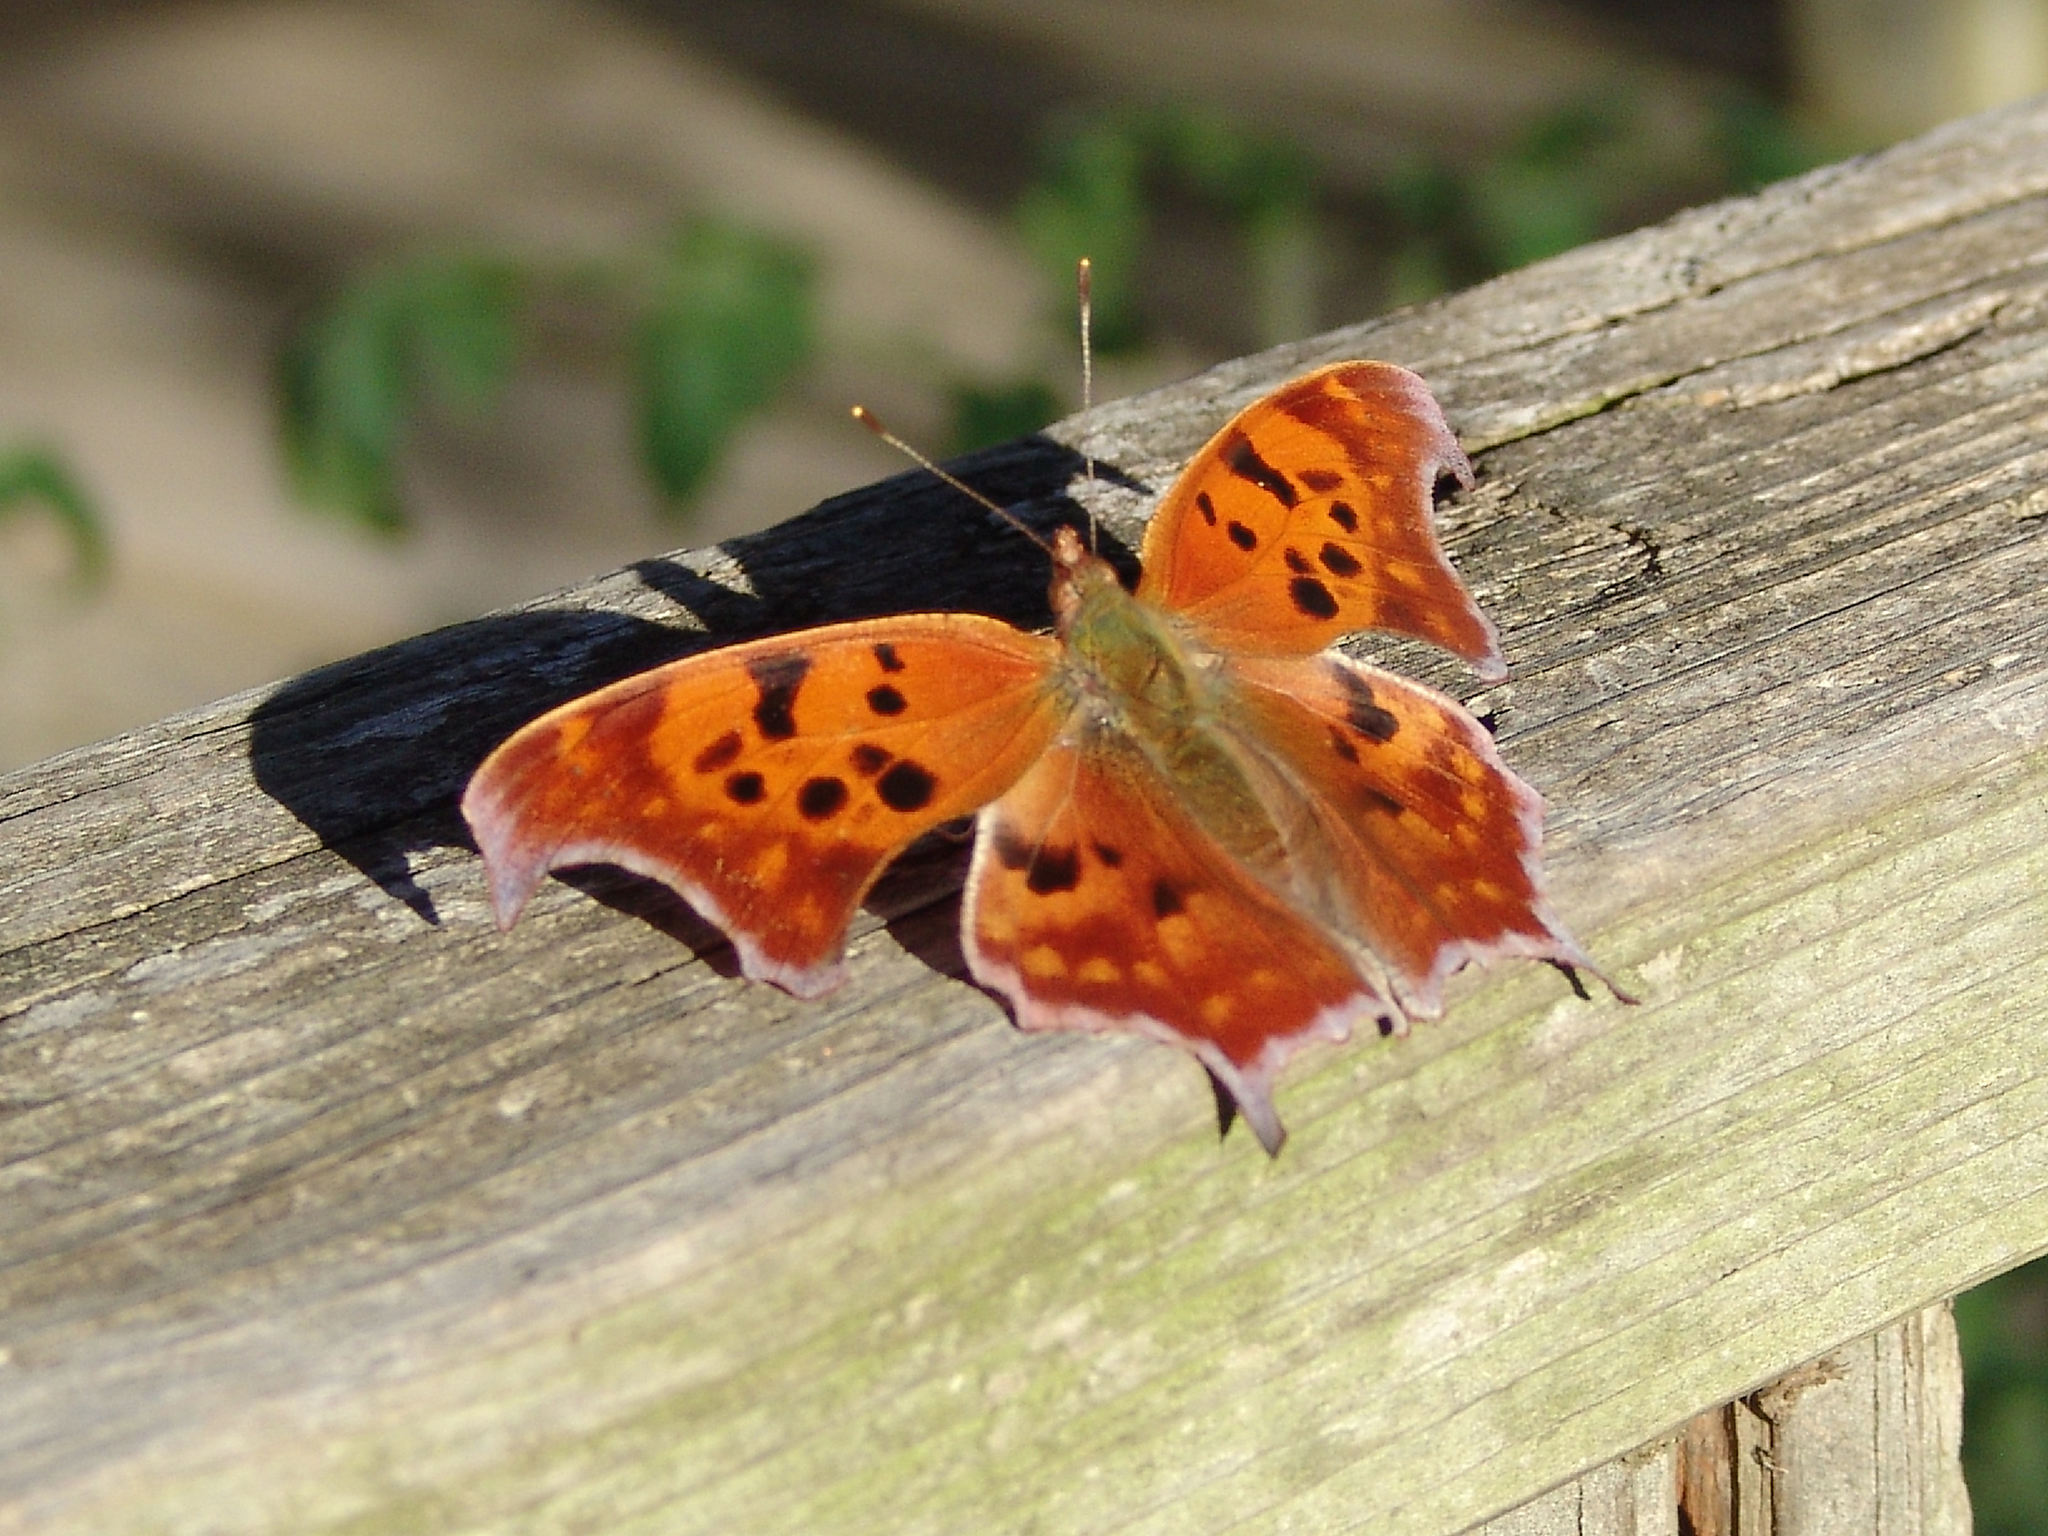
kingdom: Animalia
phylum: Arthropoda
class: Insecta
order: Lepidoptera
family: Nymphalidae
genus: Polygonia
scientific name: Polygonia interrogationis
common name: Question mark
